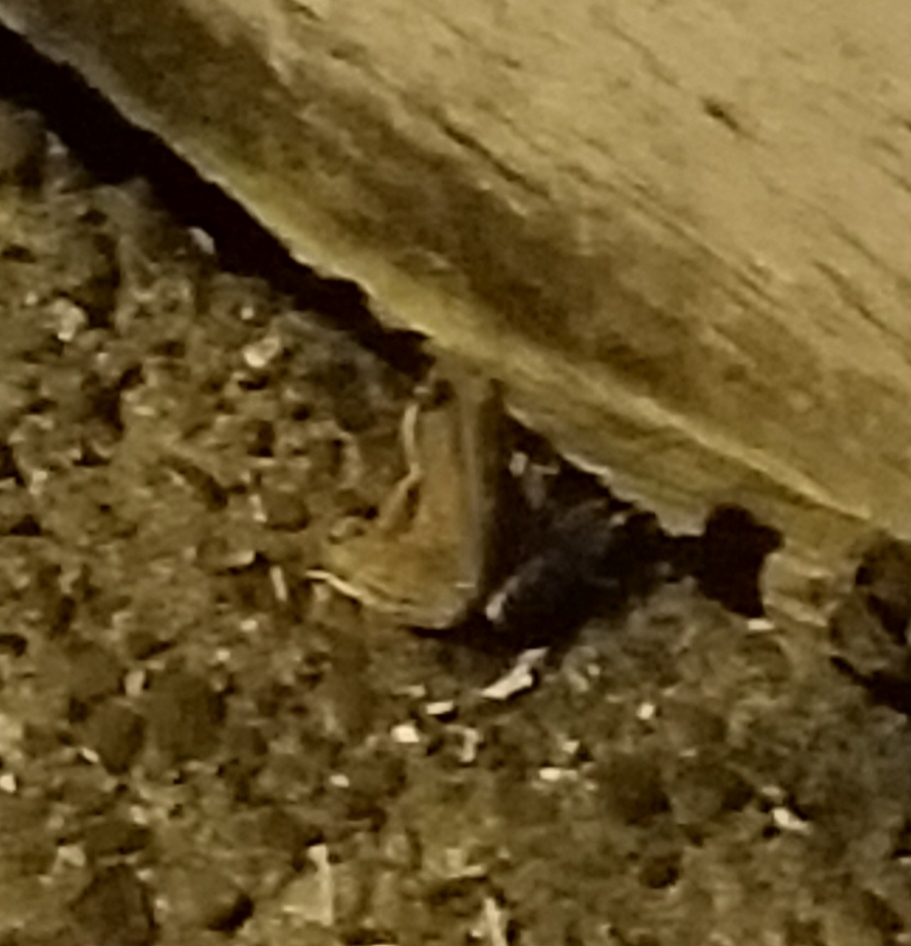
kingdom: Animalia
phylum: Chordata
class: Amphibia
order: Anura
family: Ranidae
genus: Rana
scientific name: Rana aurora
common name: Red-legged frog
